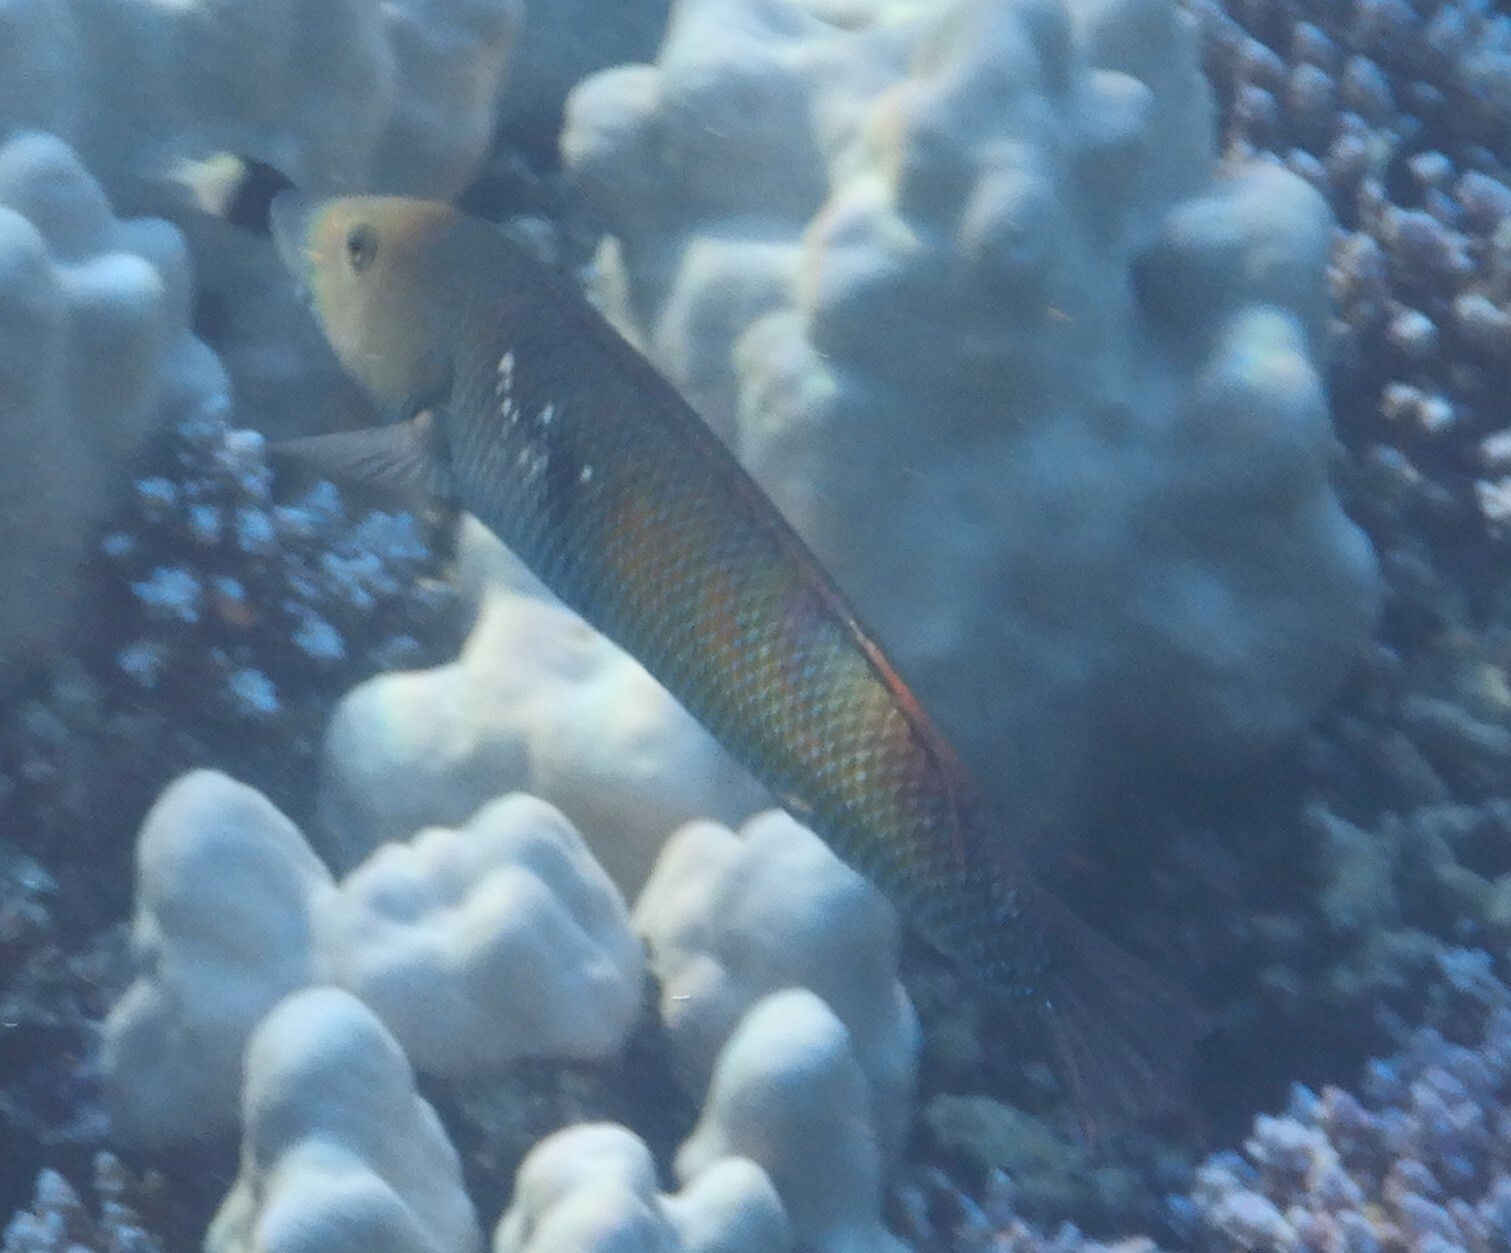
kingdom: Animalia
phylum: Chordata
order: Perciformes
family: Labridae
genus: Cheilio
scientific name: Cheilio inermis
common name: Cigar wrasse
